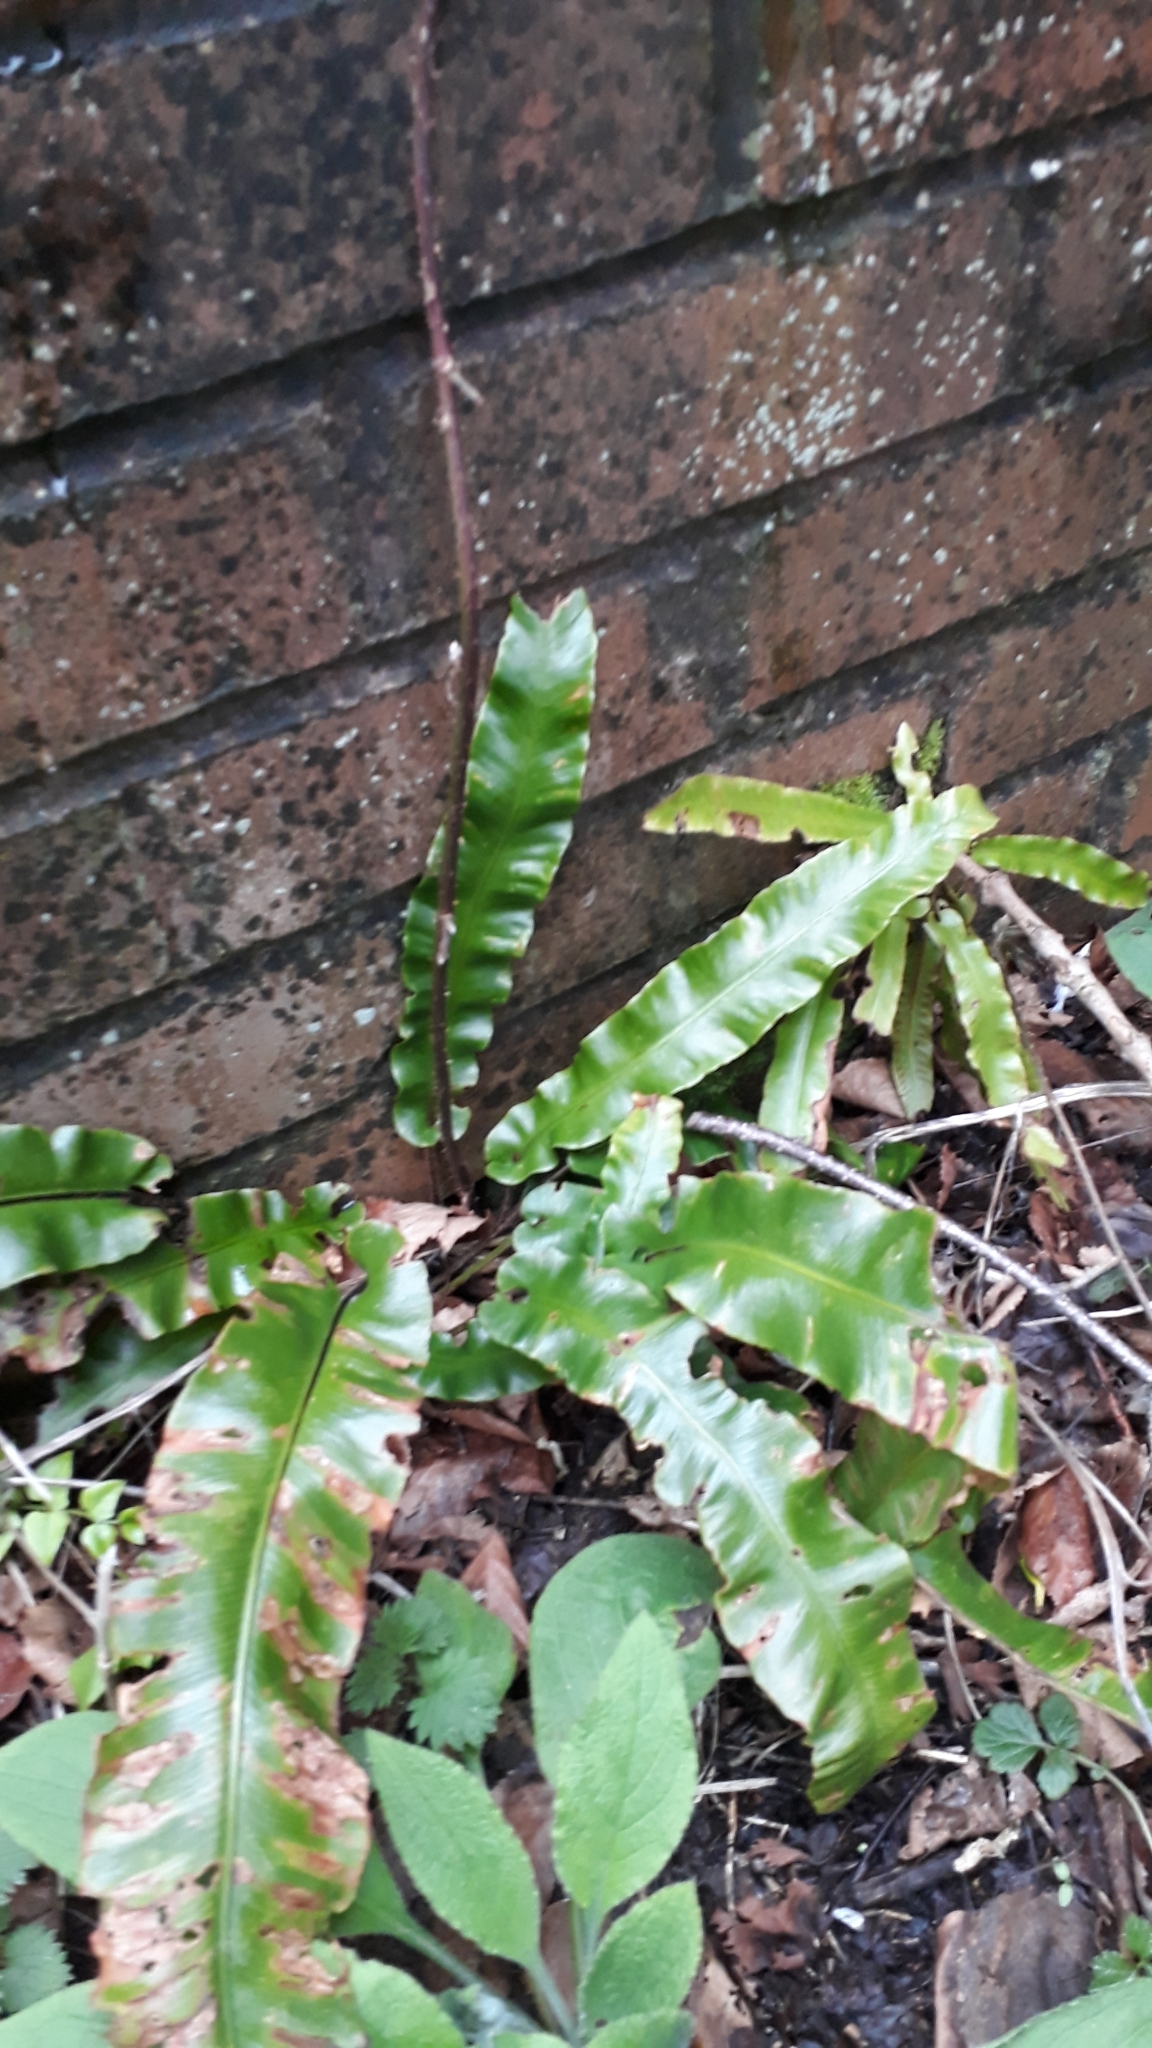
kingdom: Plantae
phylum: Tracheophyta
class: Polypodiopsida
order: Polypodiales
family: Aspleniaceae
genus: Asplenium
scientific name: Asplenium scolopendrium
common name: Hart's-tongue fern
